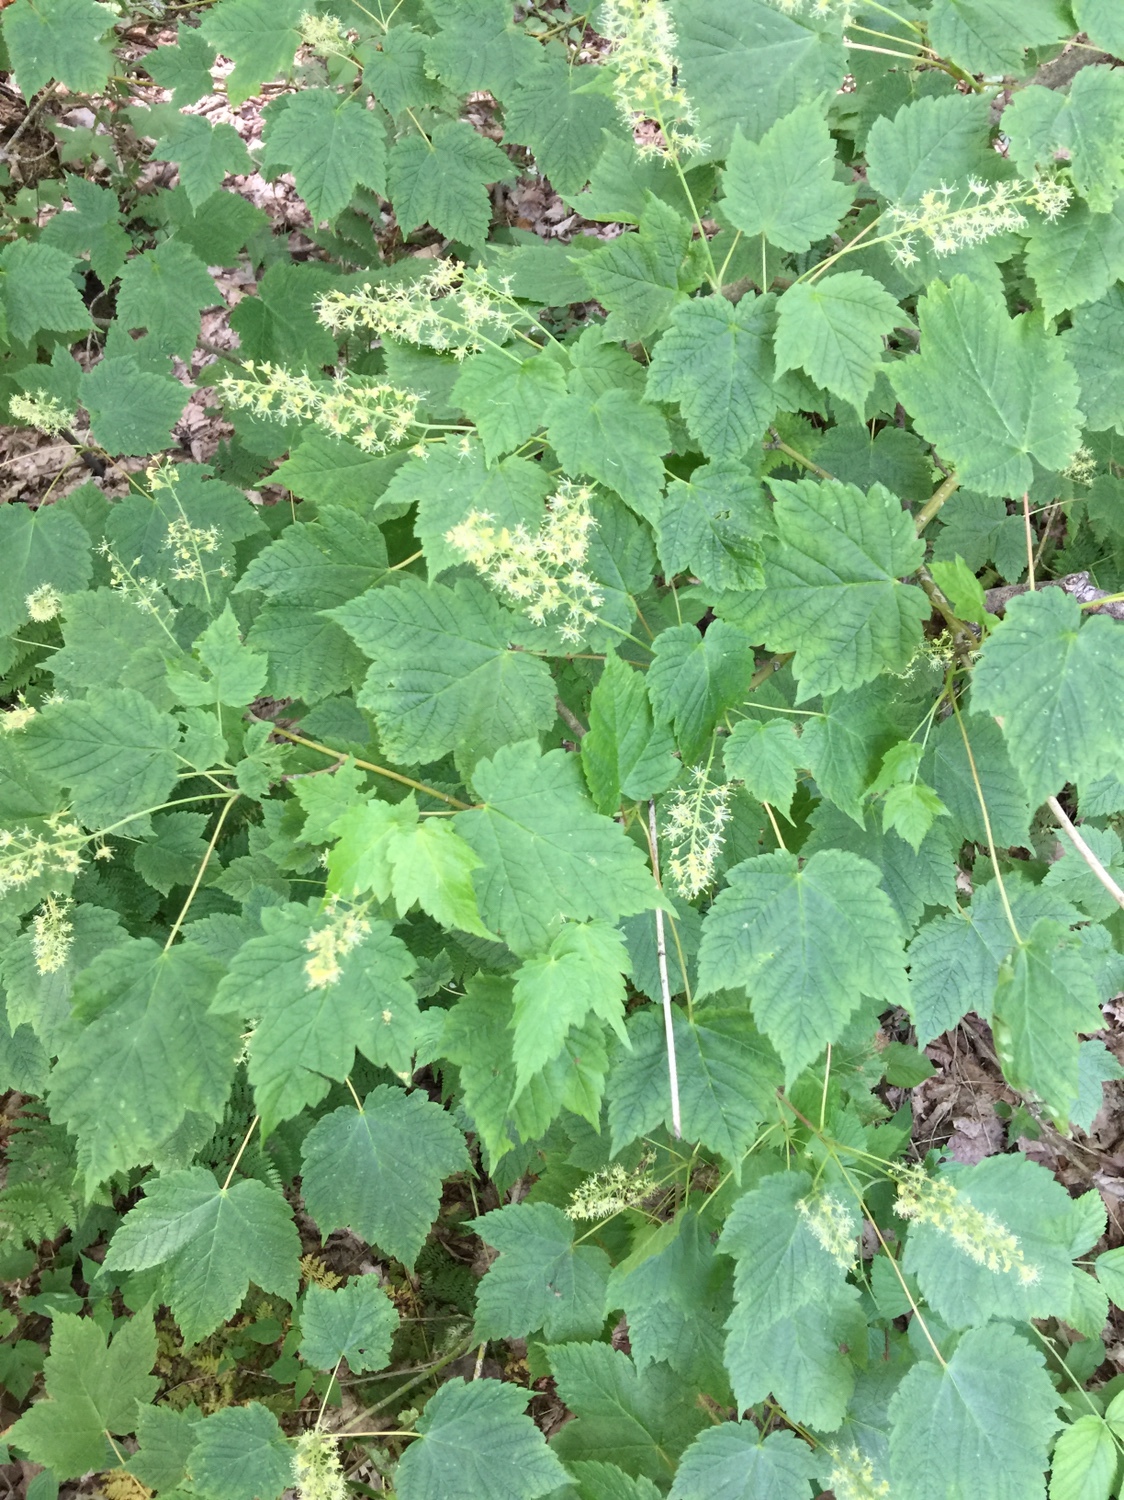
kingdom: Plantae
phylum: Tracheophyta
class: Magnoliopsida
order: Sapindales
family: Sapindaceae
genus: Acer
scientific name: Acer spicatum
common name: Mountain maple
